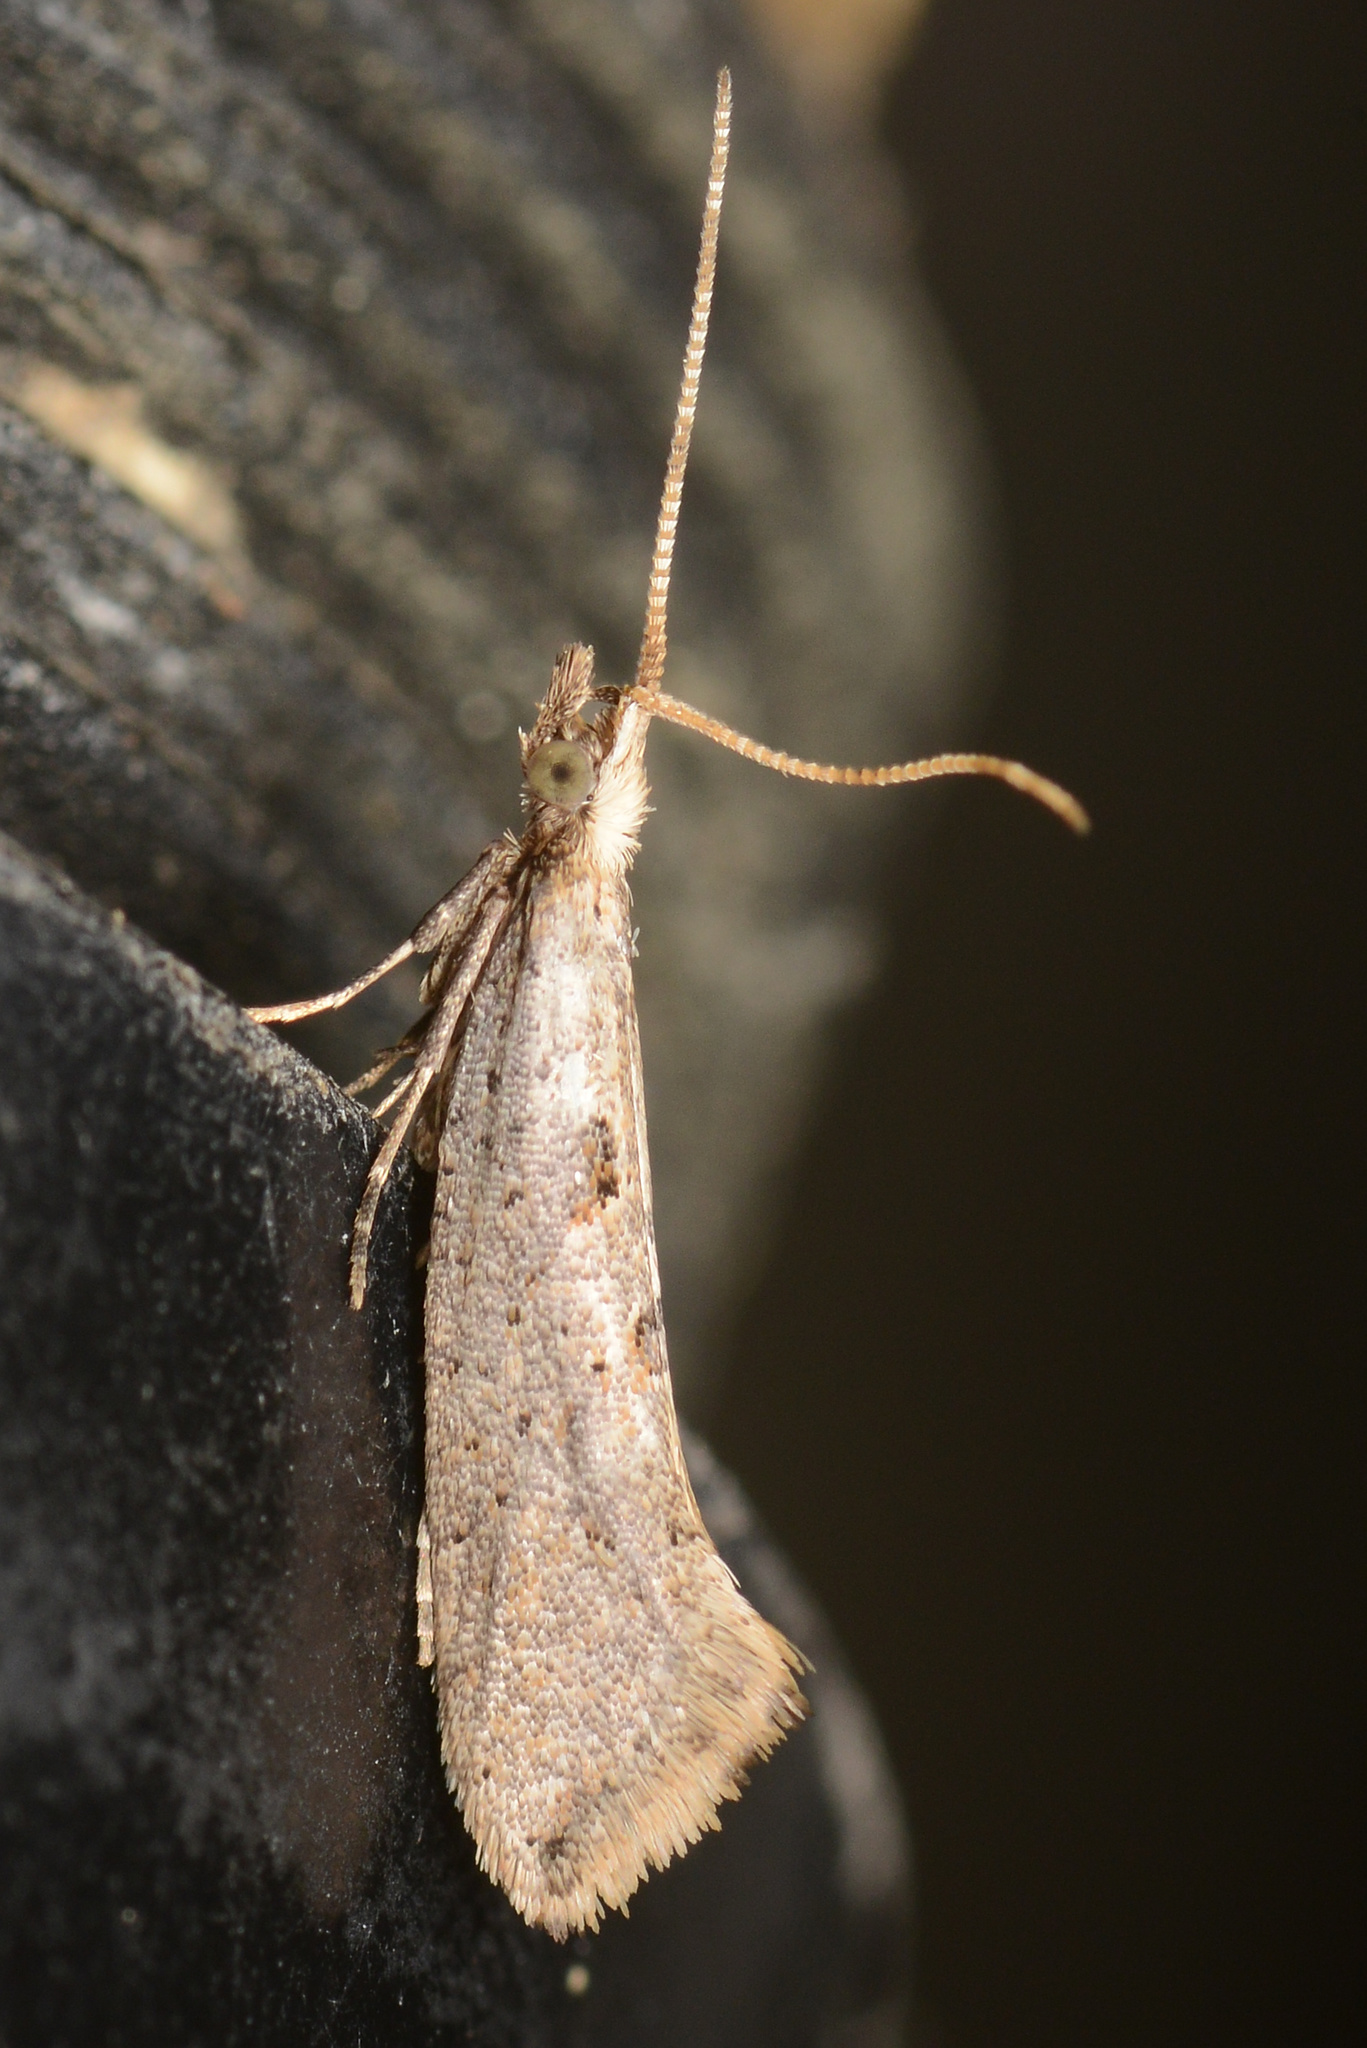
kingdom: Animalia
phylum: Arthropoda
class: Insecta
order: Lepidoptera
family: Plutellidae
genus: Leuroperna
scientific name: Leuroperna sera
